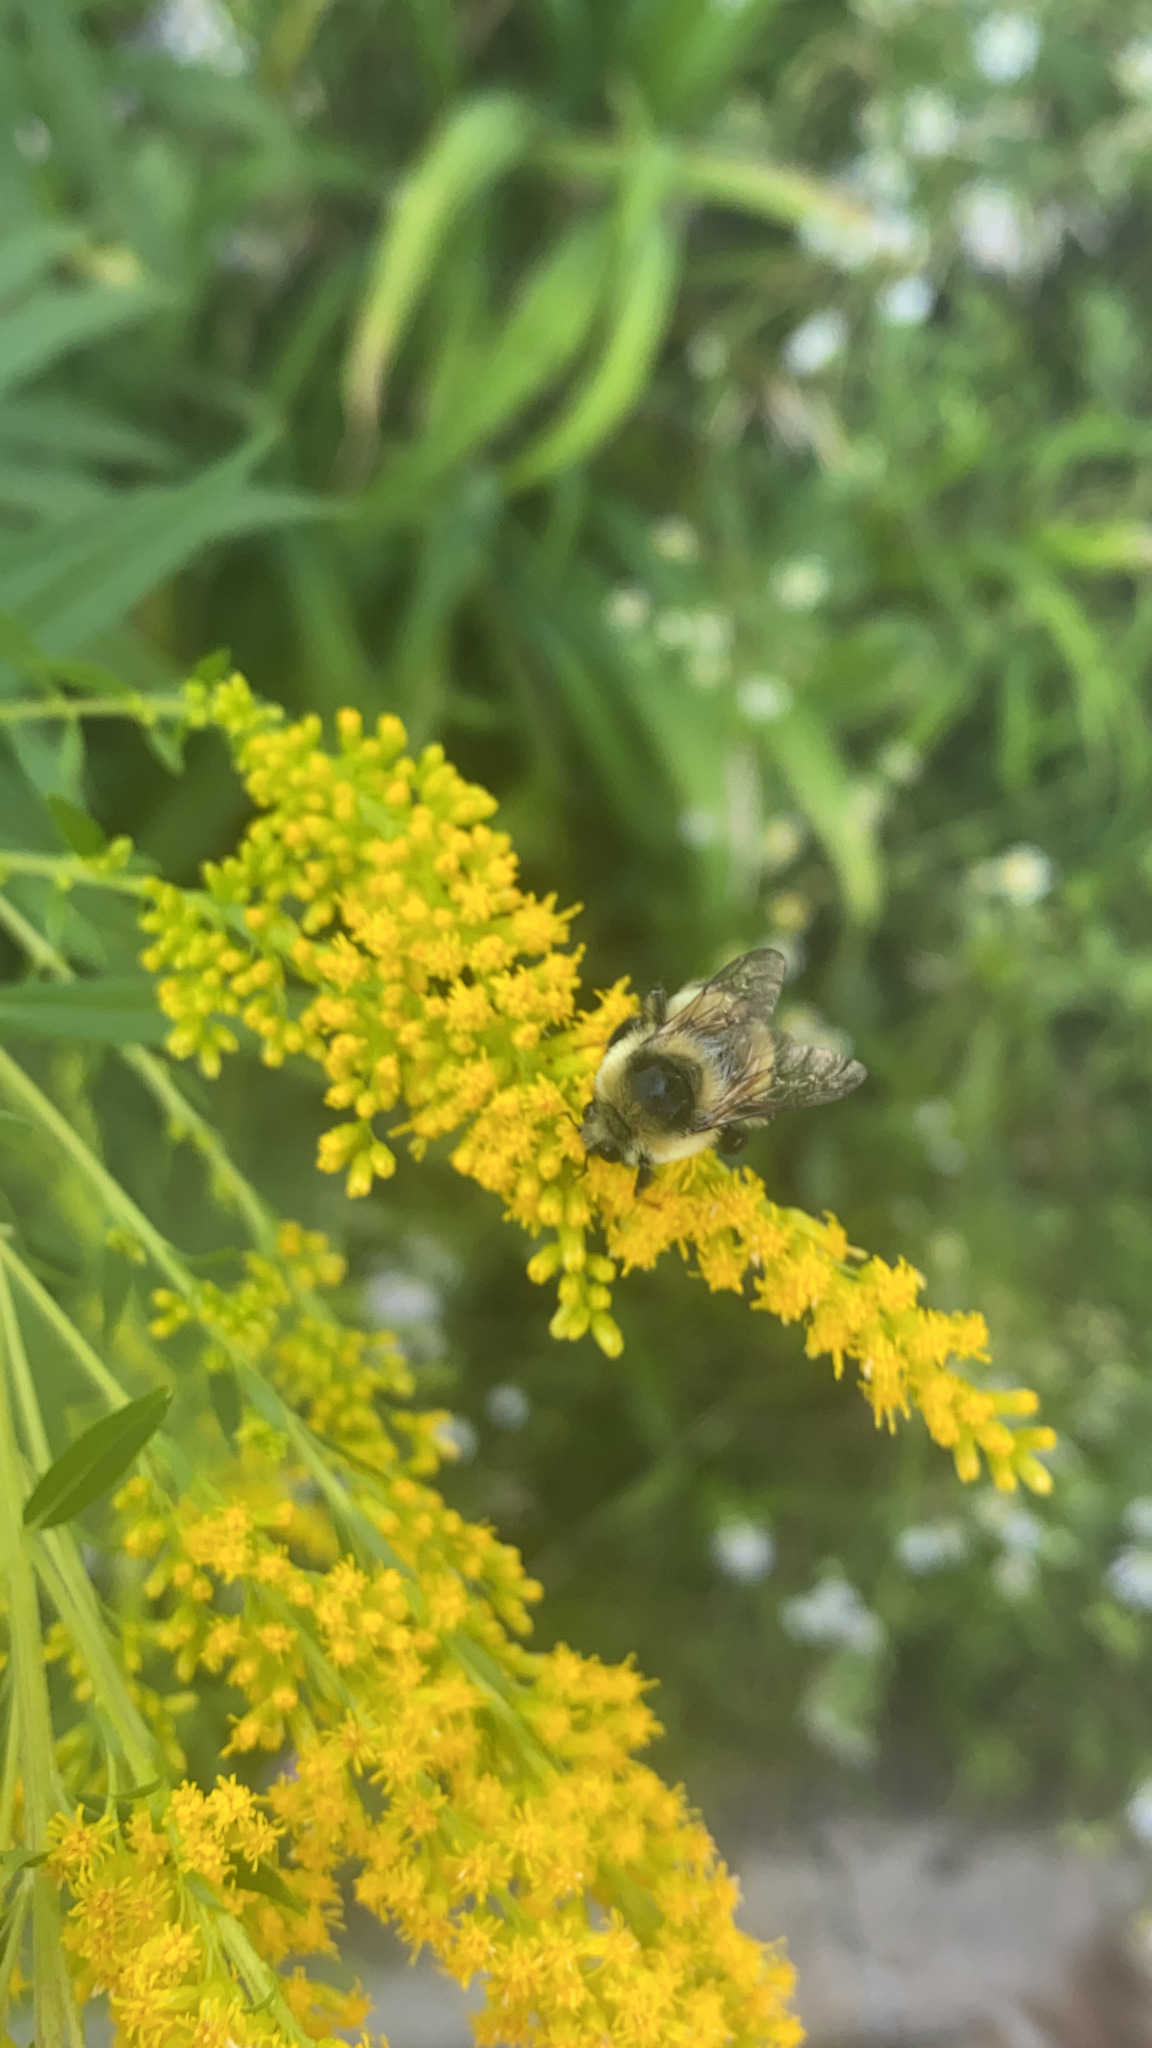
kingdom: Animalia
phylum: Arthropoda
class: Insecta
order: Hymenoptera
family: Apidae
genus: Bombus
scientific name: Bombus rufocinctus
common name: Red-belted bumble bee
